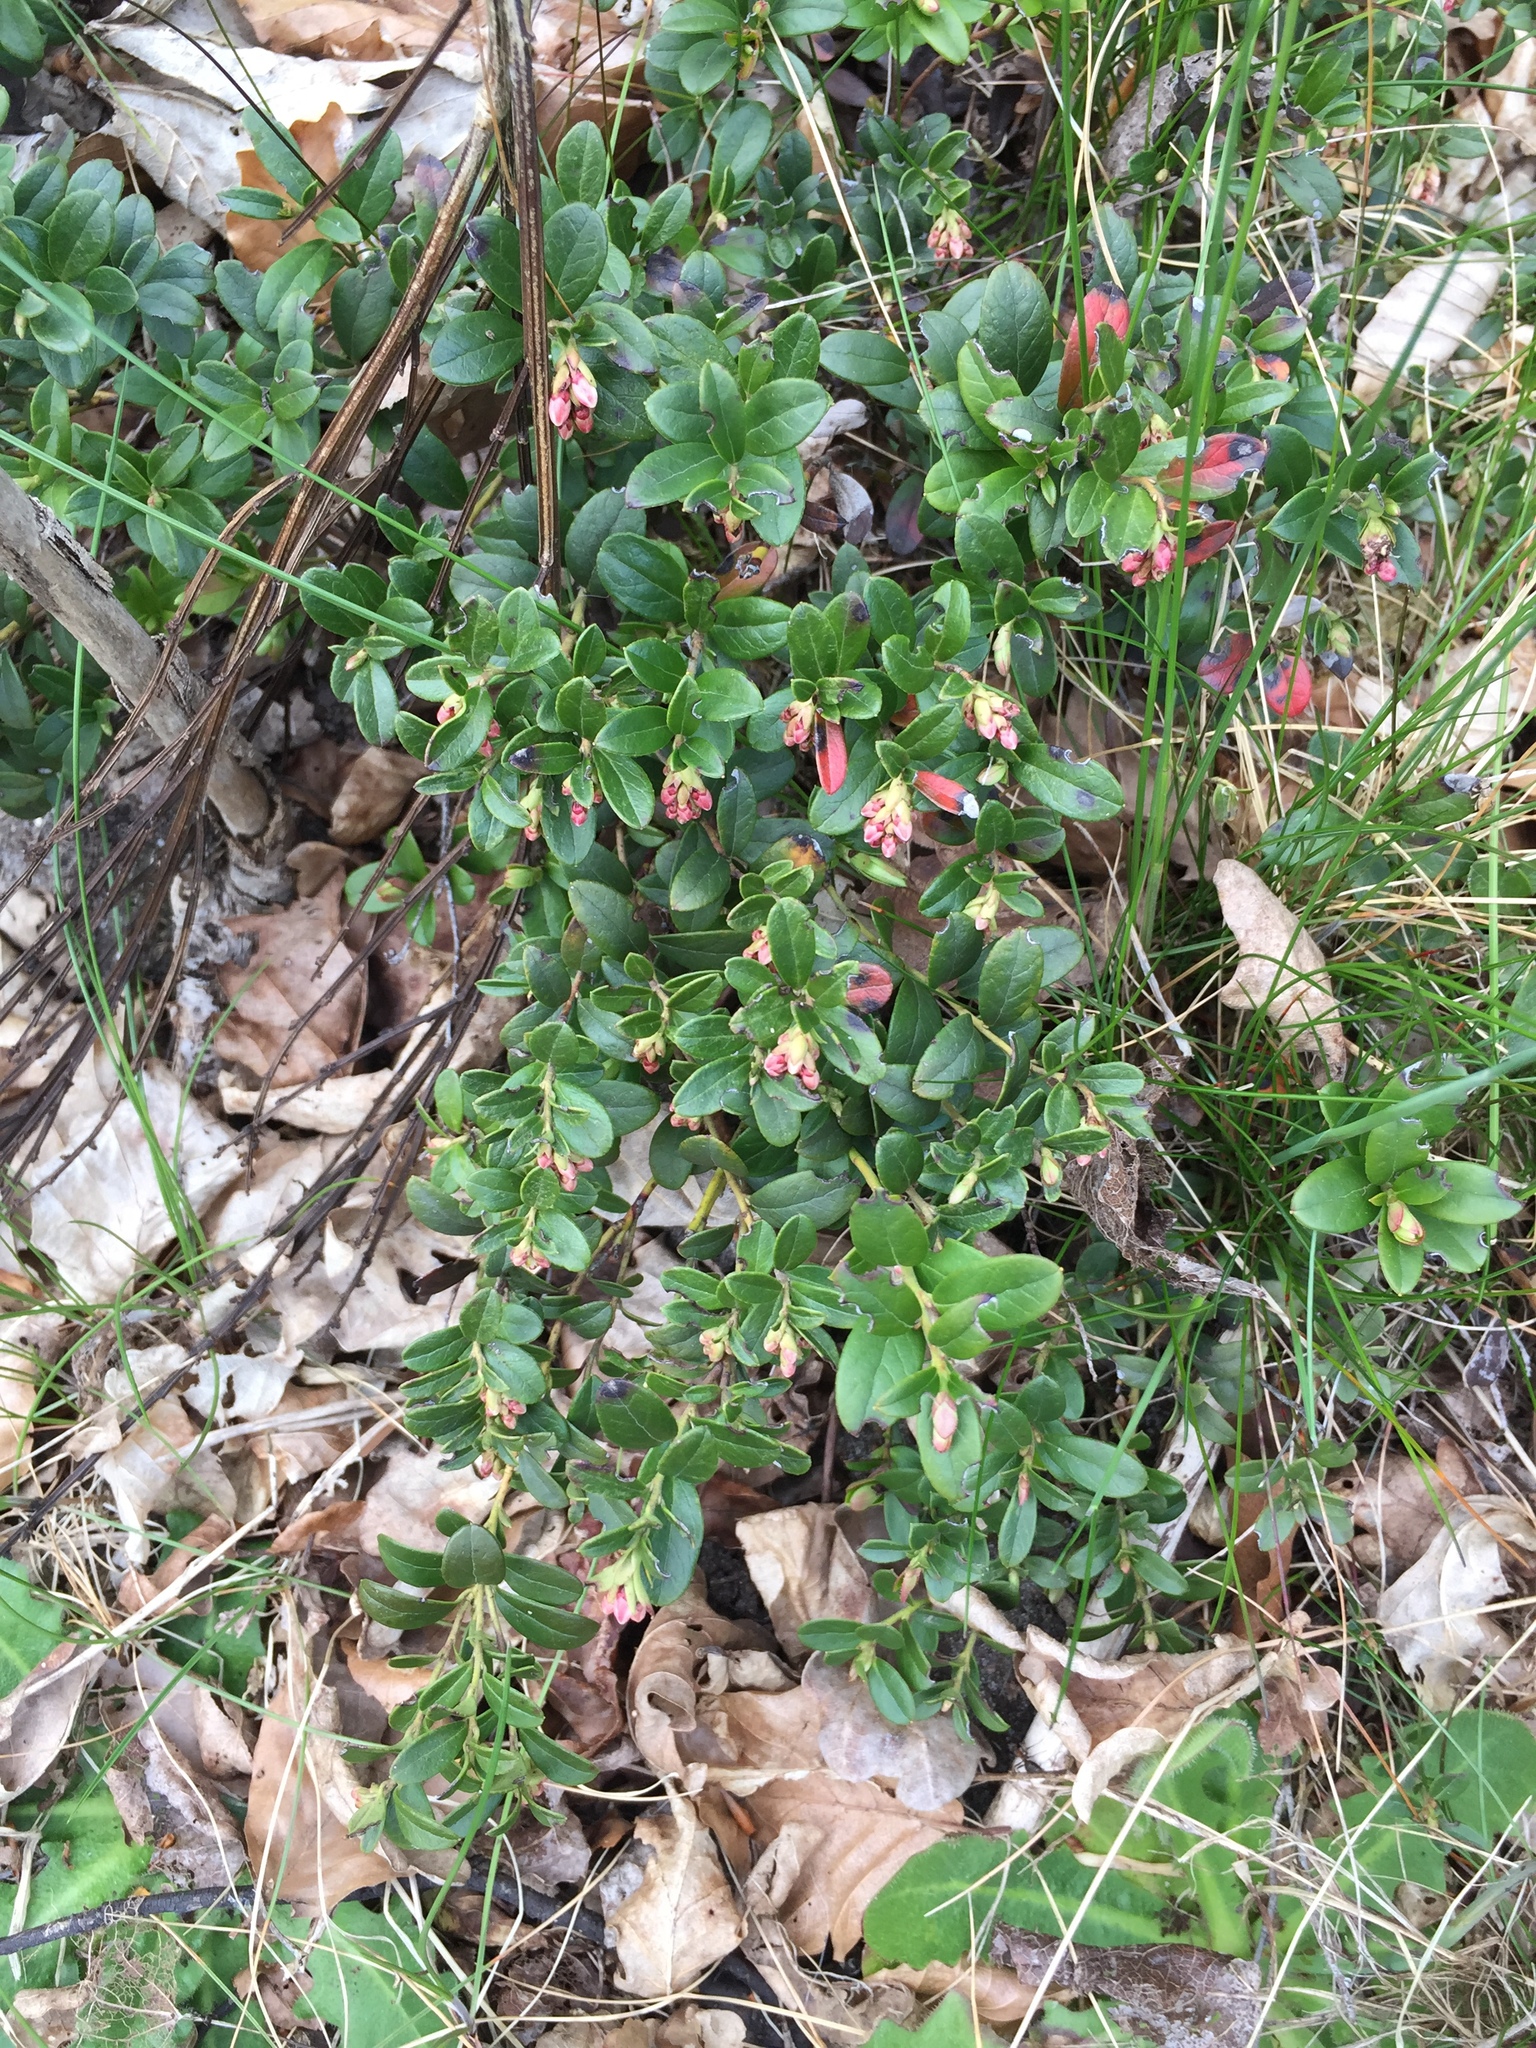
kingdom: Plantae
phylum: Tracheophyta
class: Magnoliopsida
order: Ericales
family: Ericaceae
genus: Vaccinium
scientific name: Vaccinium vitis-idaea
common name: Cowberry
